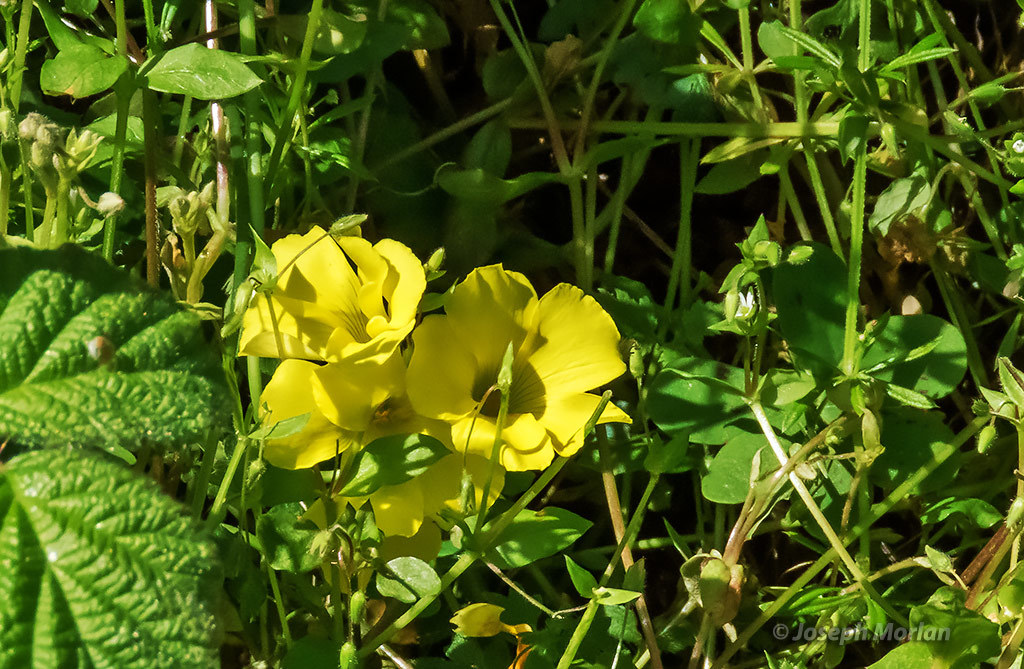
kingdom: Plantae
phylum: Tracheophyta
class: Magnoliopsida
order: Oxalidales
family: Oxalidaceae
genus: Oxalis
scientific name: Oxalis pes-caprae
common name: Bermuda-buttercup
